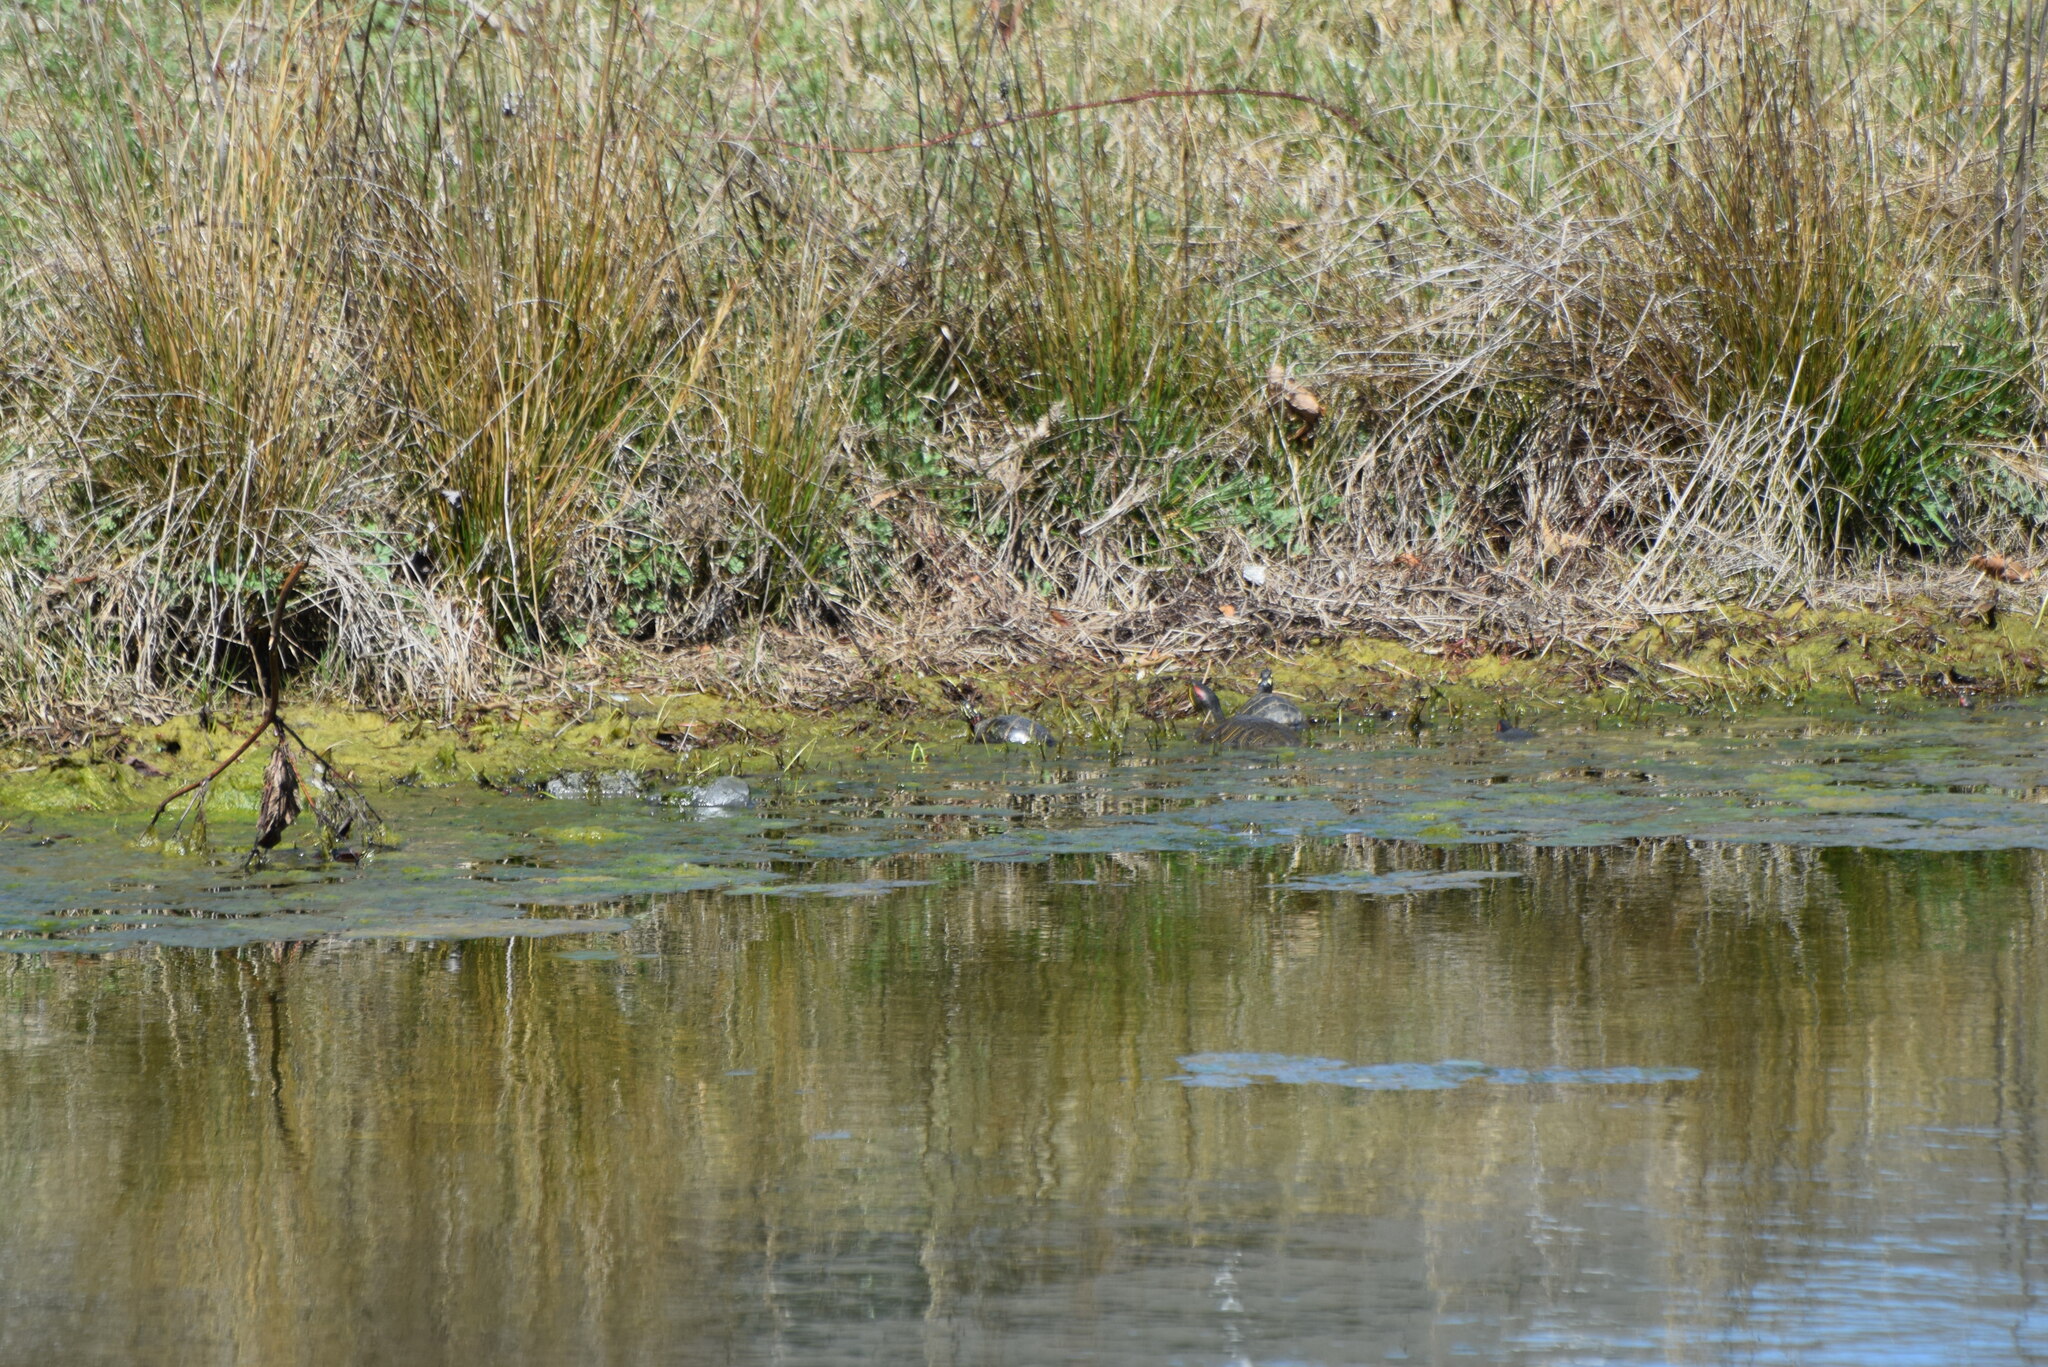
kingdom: Animalia
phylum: Chordata
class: Testudines
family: Emydidae
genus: Chrysemys
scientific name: Chrysemys picta
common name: Painted turtle
